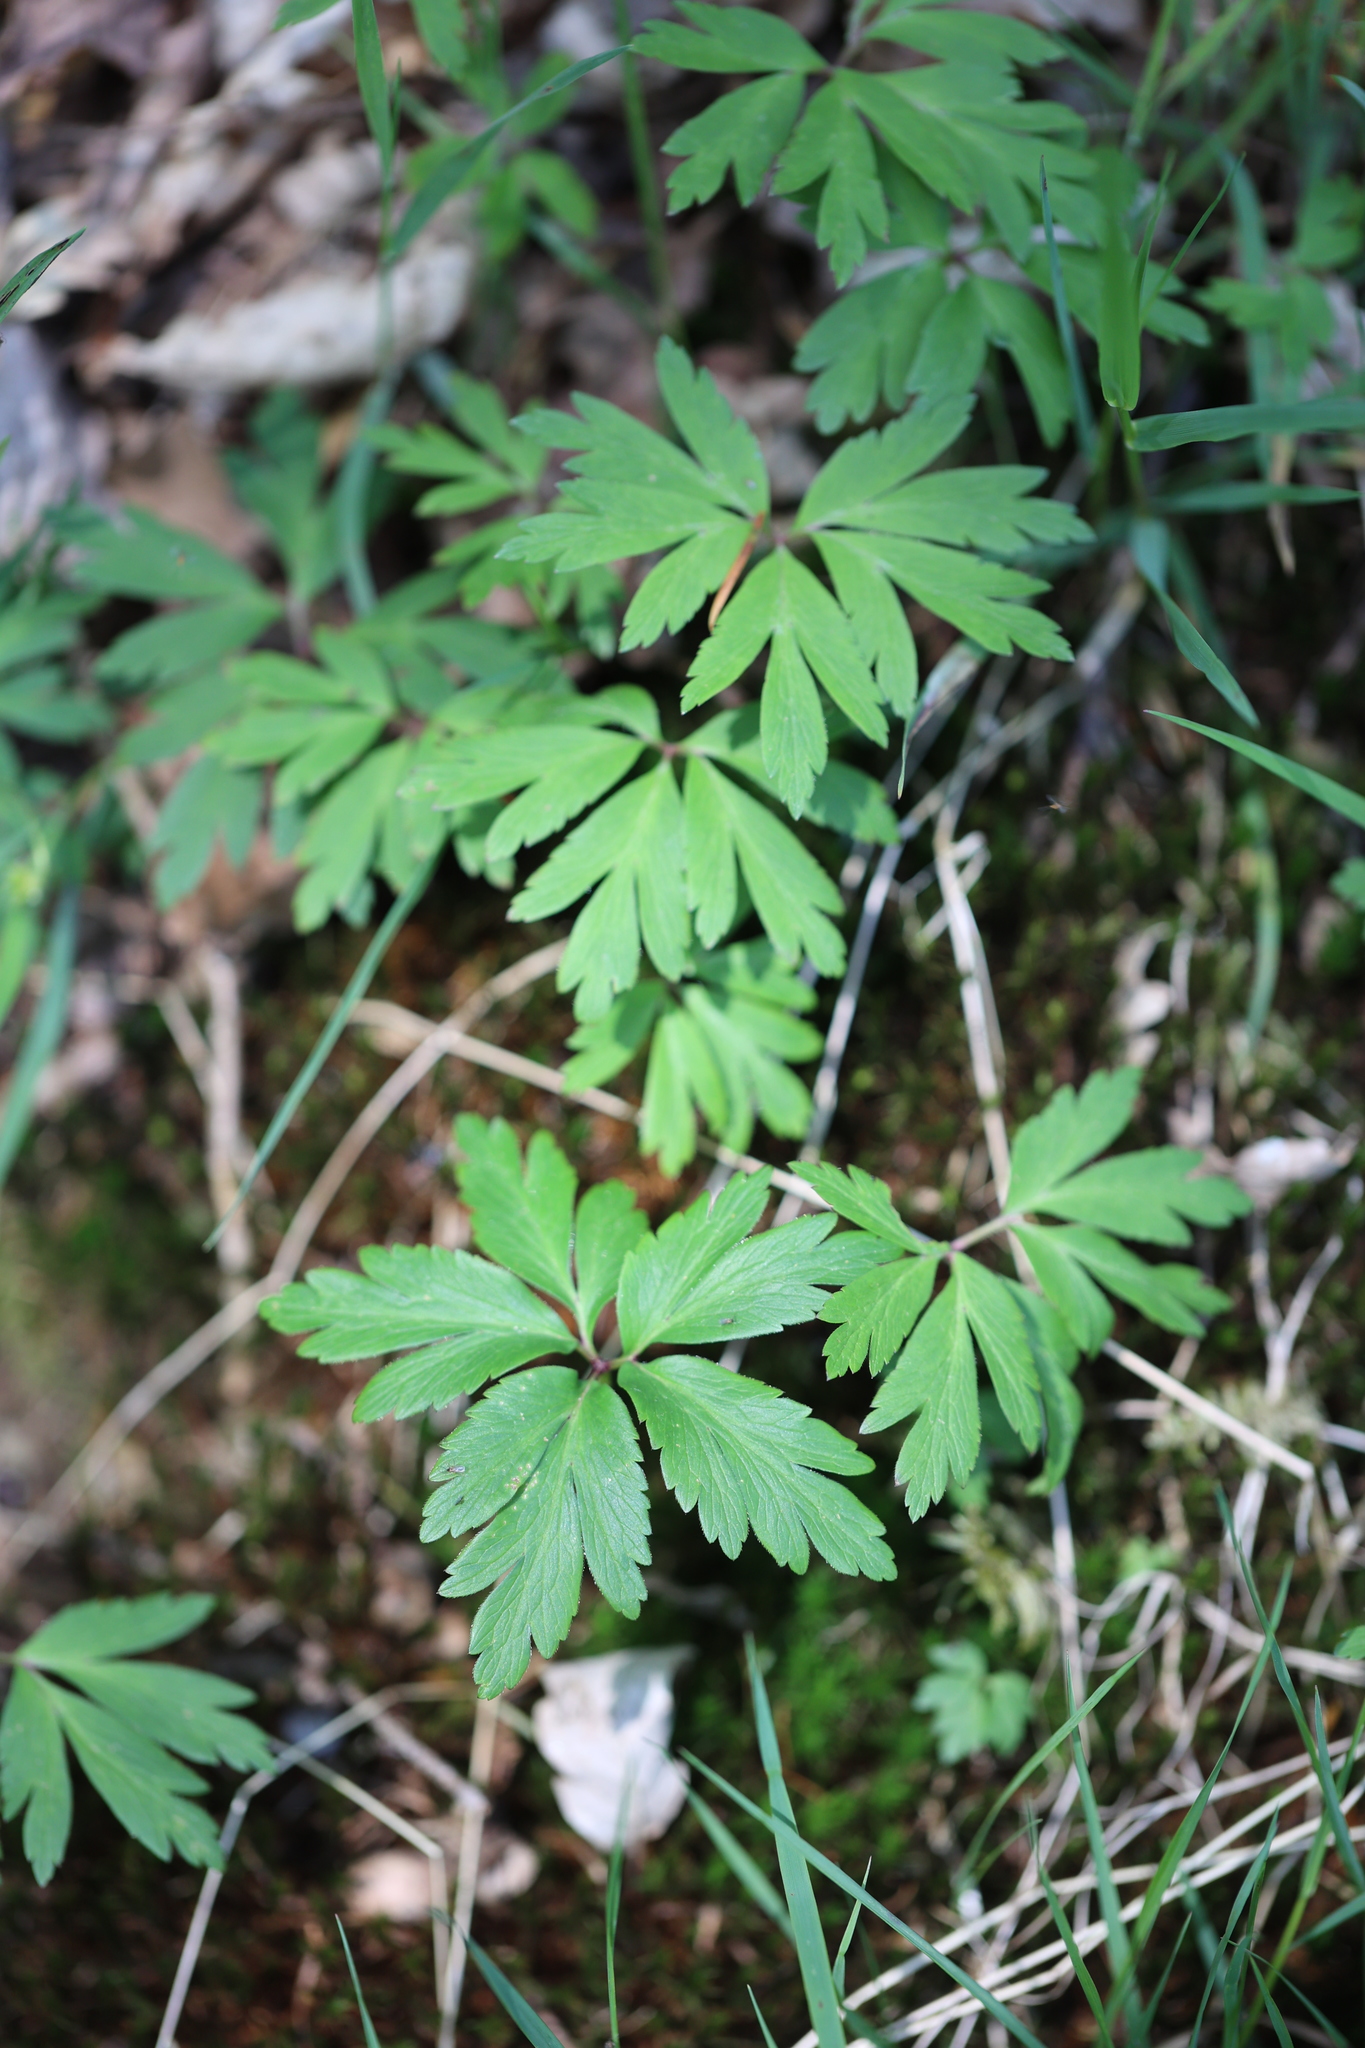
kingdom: Plantae
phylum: Tracheophyta
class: Magnoliopsida
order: Ranunculales
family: Ranunculaceae
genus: Anemone
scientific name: Anemone nemorosa
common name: Wood anemone
